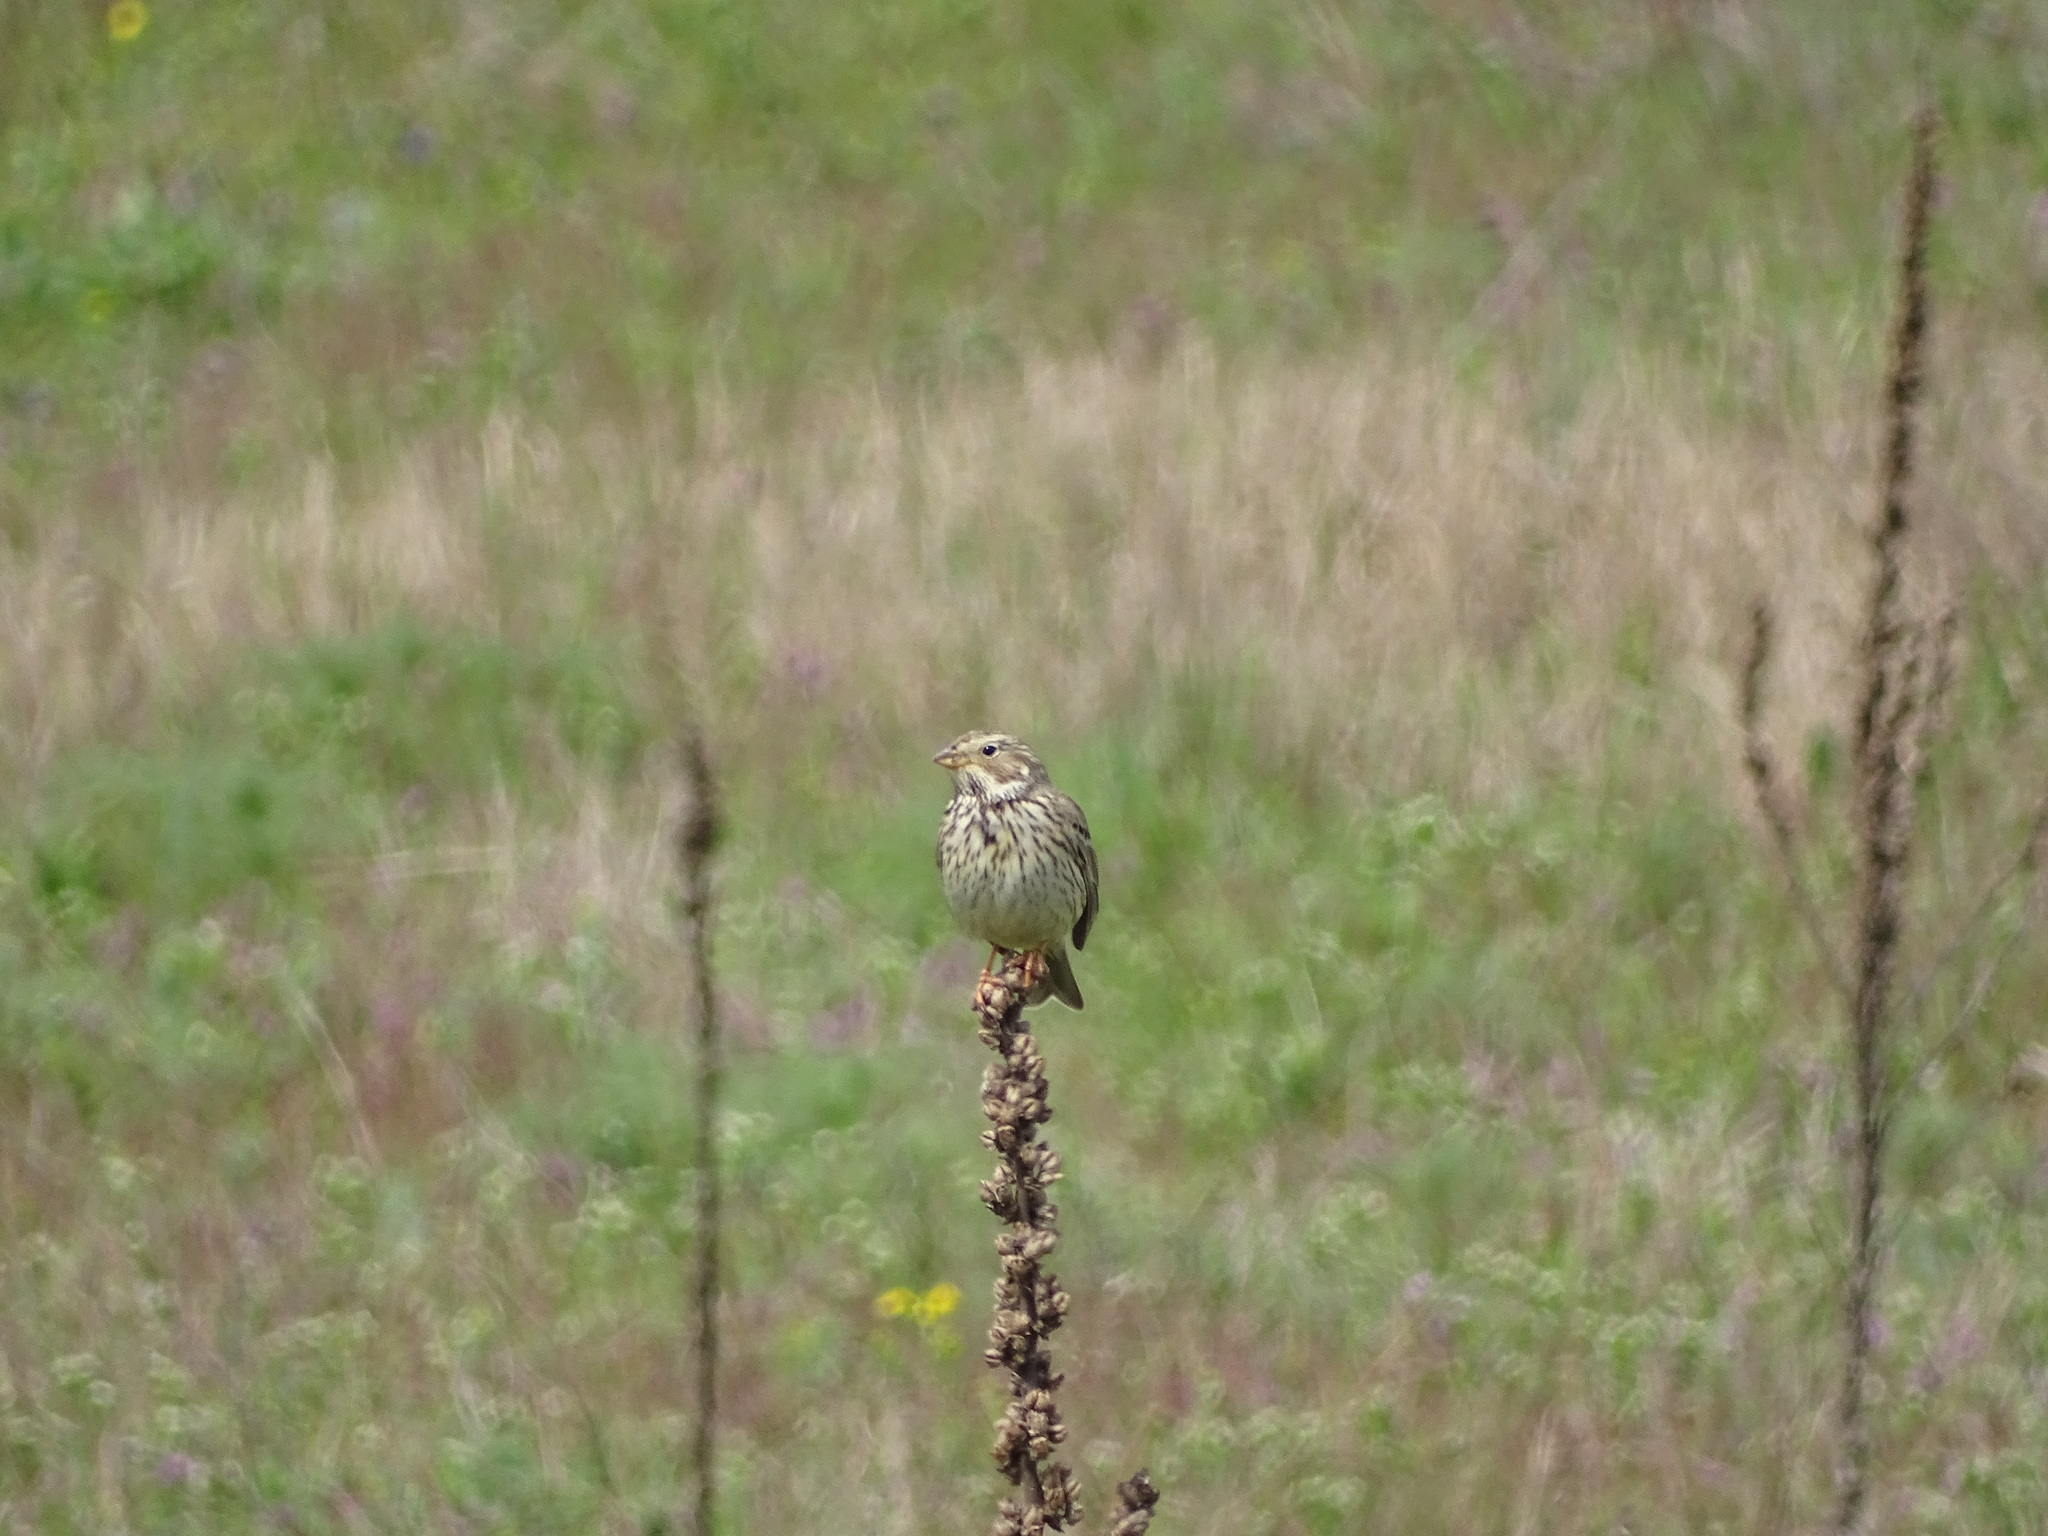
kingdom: Animalia
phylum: Chordata
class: Aves
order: Passeriformes
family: Emberizidae
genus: Emberiza
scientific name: Emberiza calandra
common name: Corn bunting
